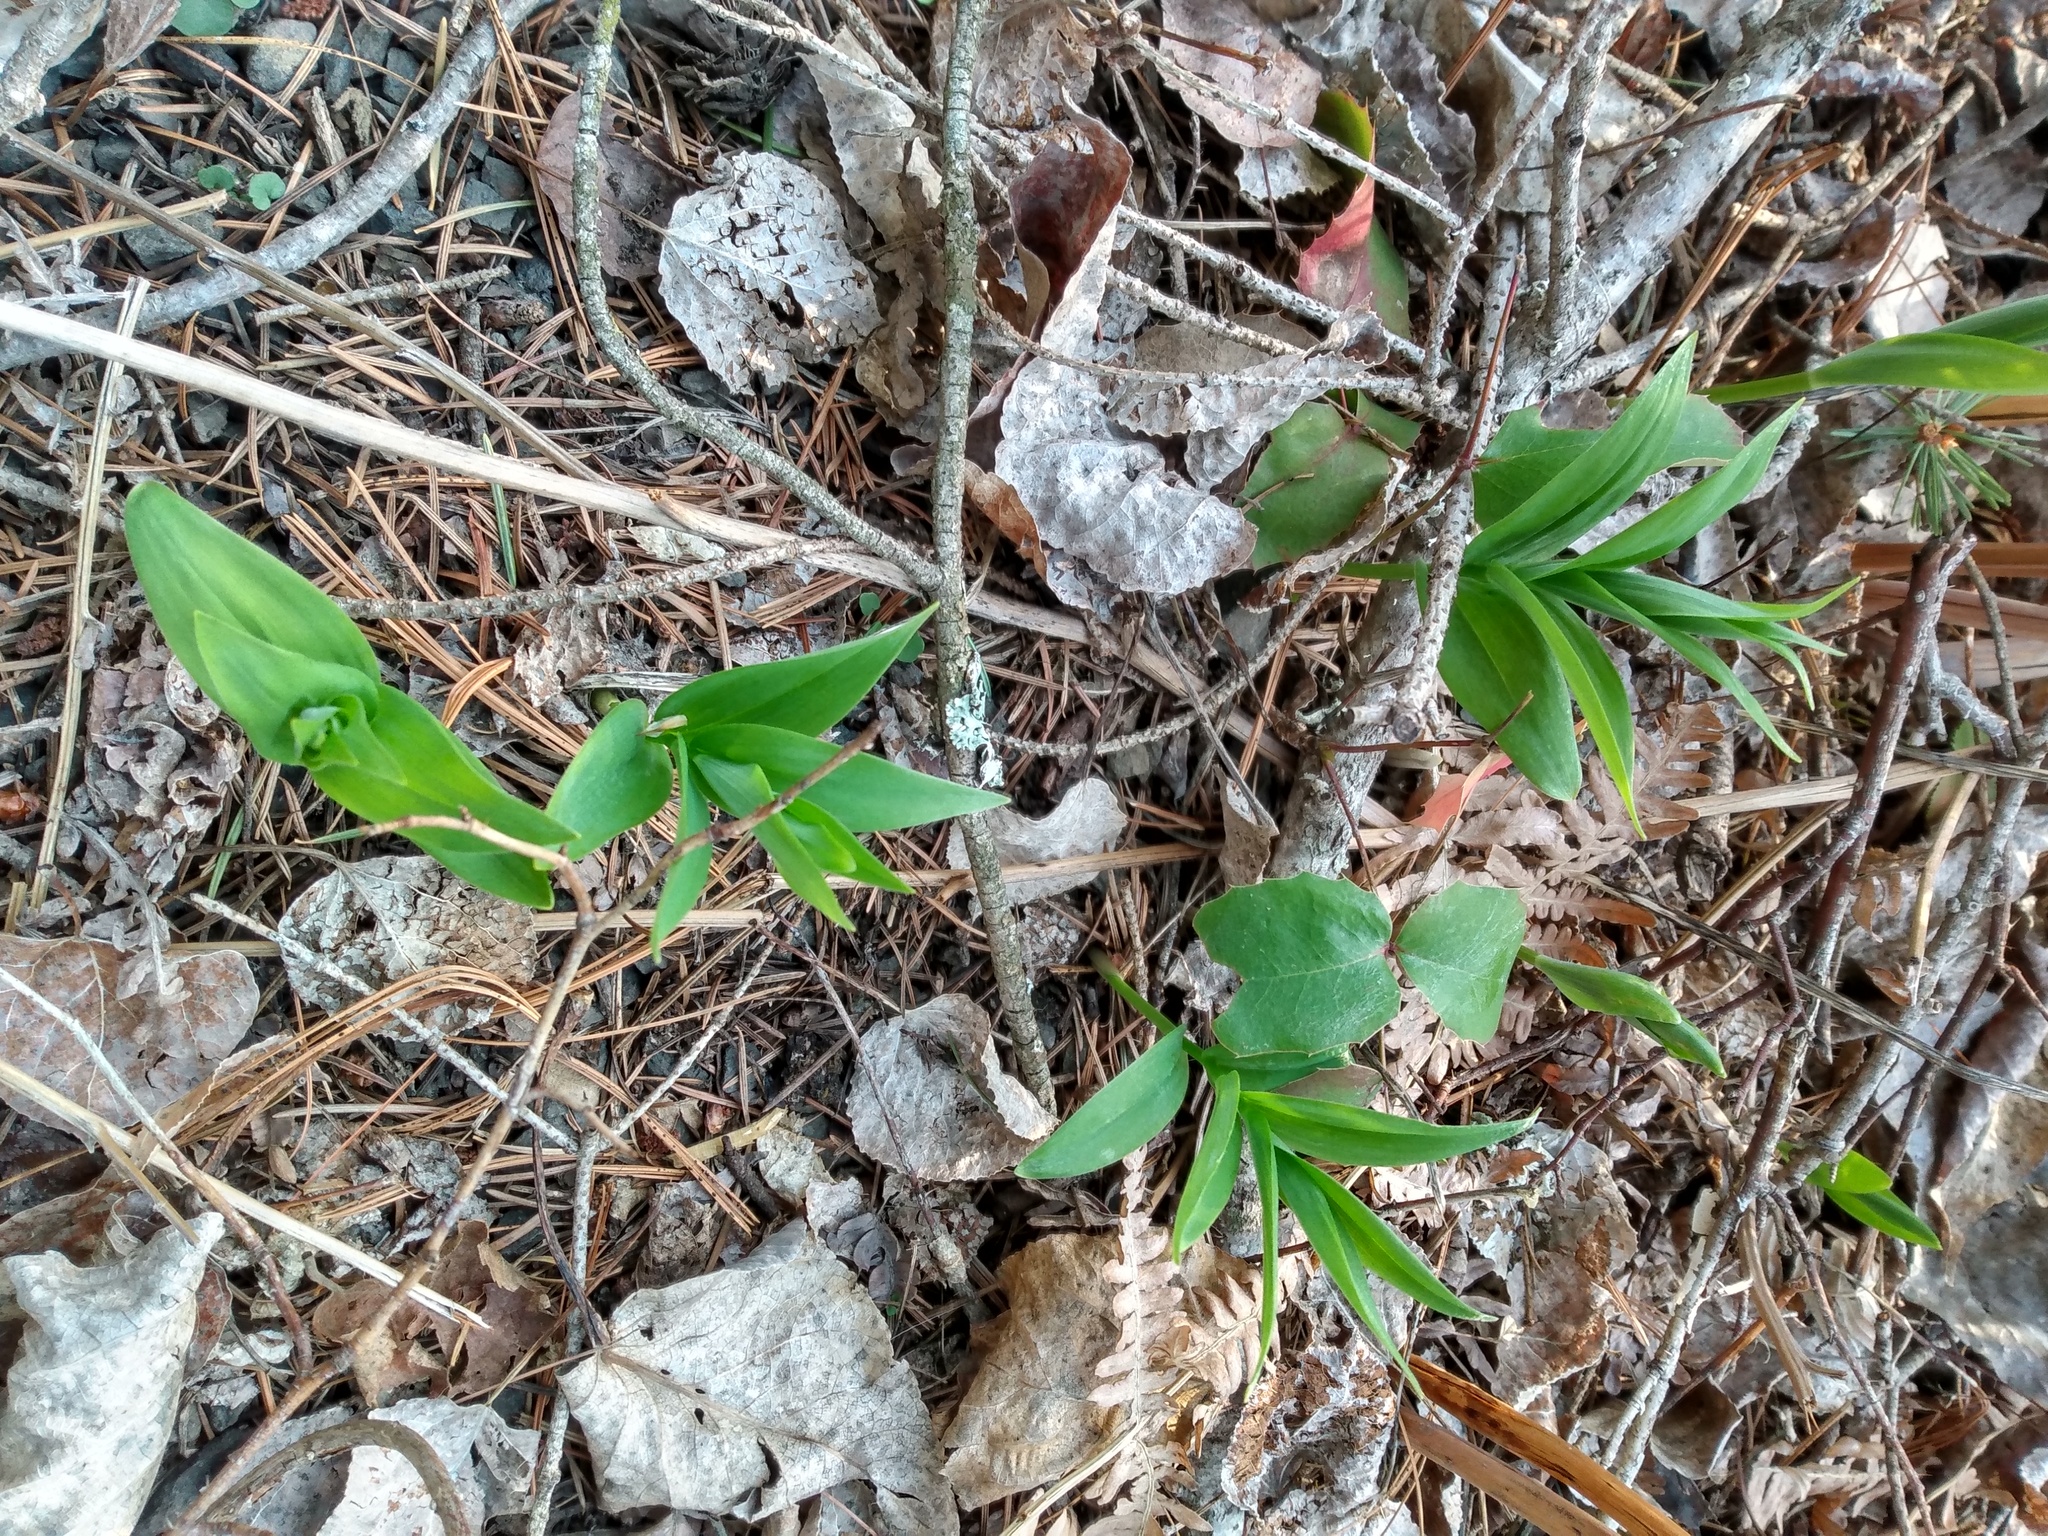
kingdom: Plantae
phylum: Tracheophyta
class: Liliopsida
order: Asparagales
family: Asparagaceae
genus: Maianthemum
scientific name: Maianthemum stellatum
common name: Little false solomon's seal
